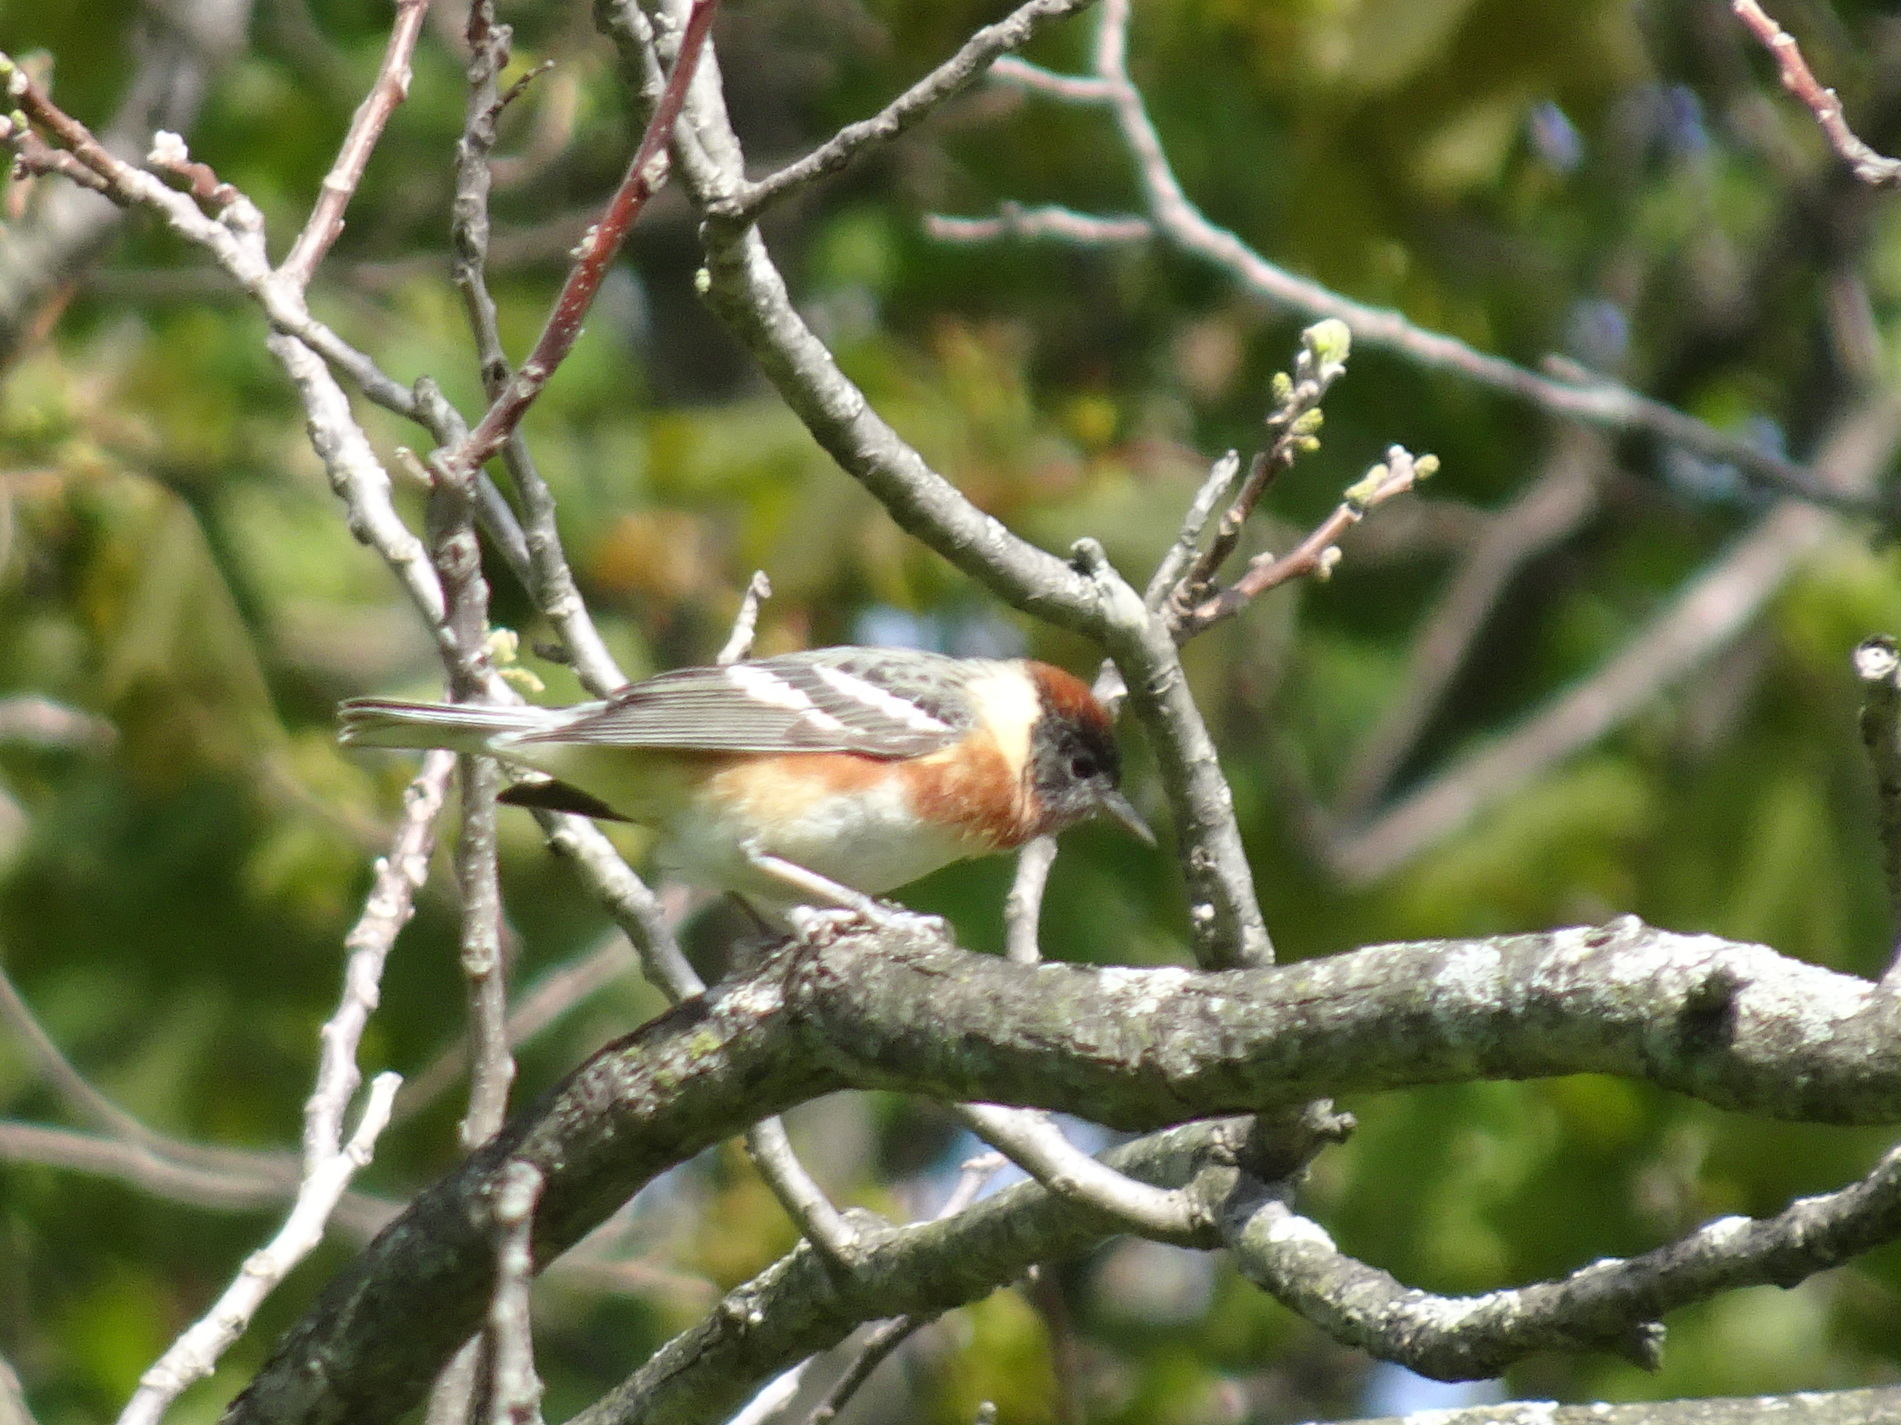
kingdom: Animalia
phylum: Chordata
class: Aves
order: Passeriformes
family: Parulidae
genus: Setophaga
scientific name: Setophaga castanea
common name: Bay-breasted warbler
